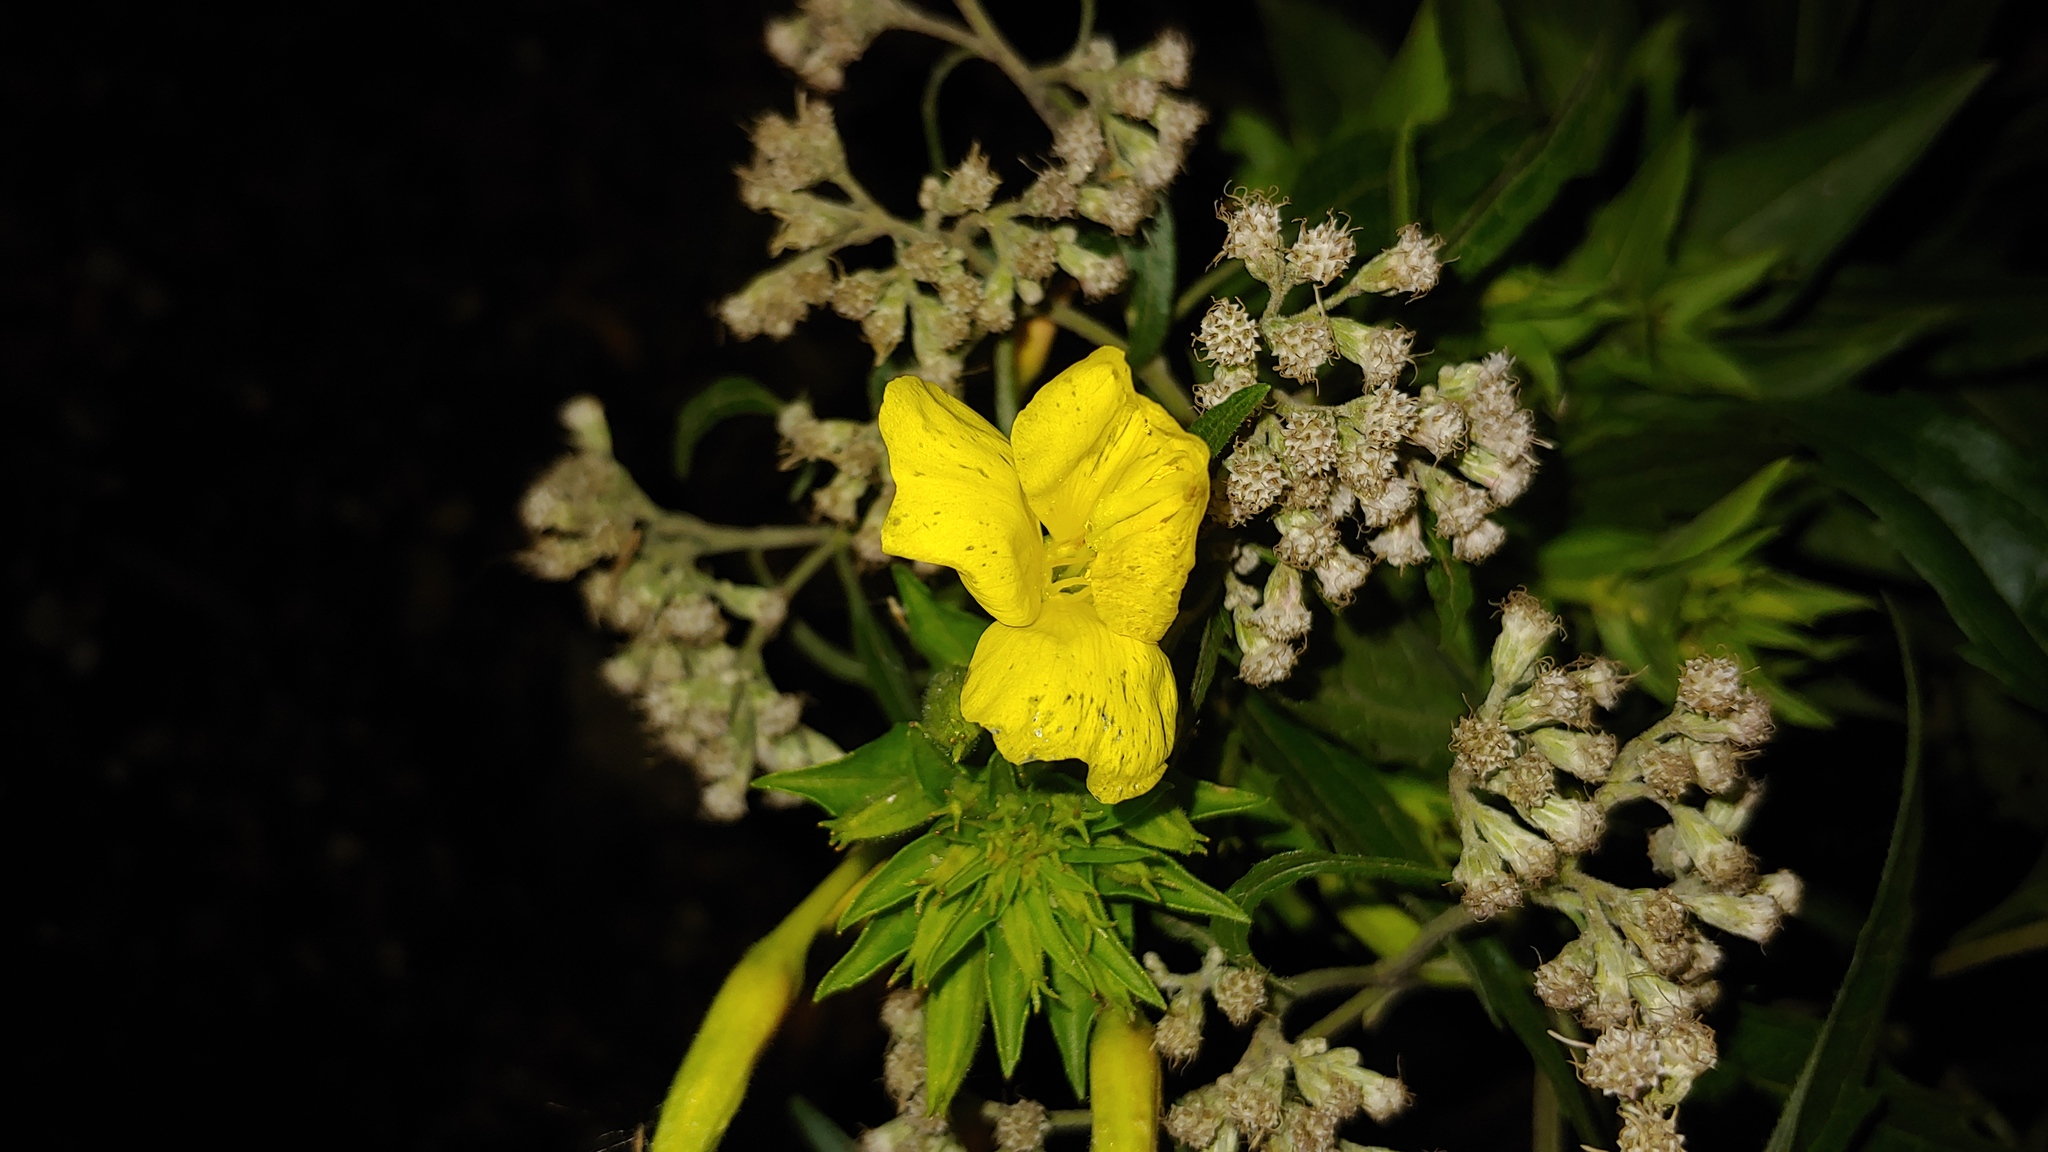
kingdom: Plantae
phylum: Tracheophyta
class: Magnoliopsida
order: Myrtales
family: Onagraceae
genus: Oenothera
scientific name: Oenothera biennis
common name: Common evening-primrose
